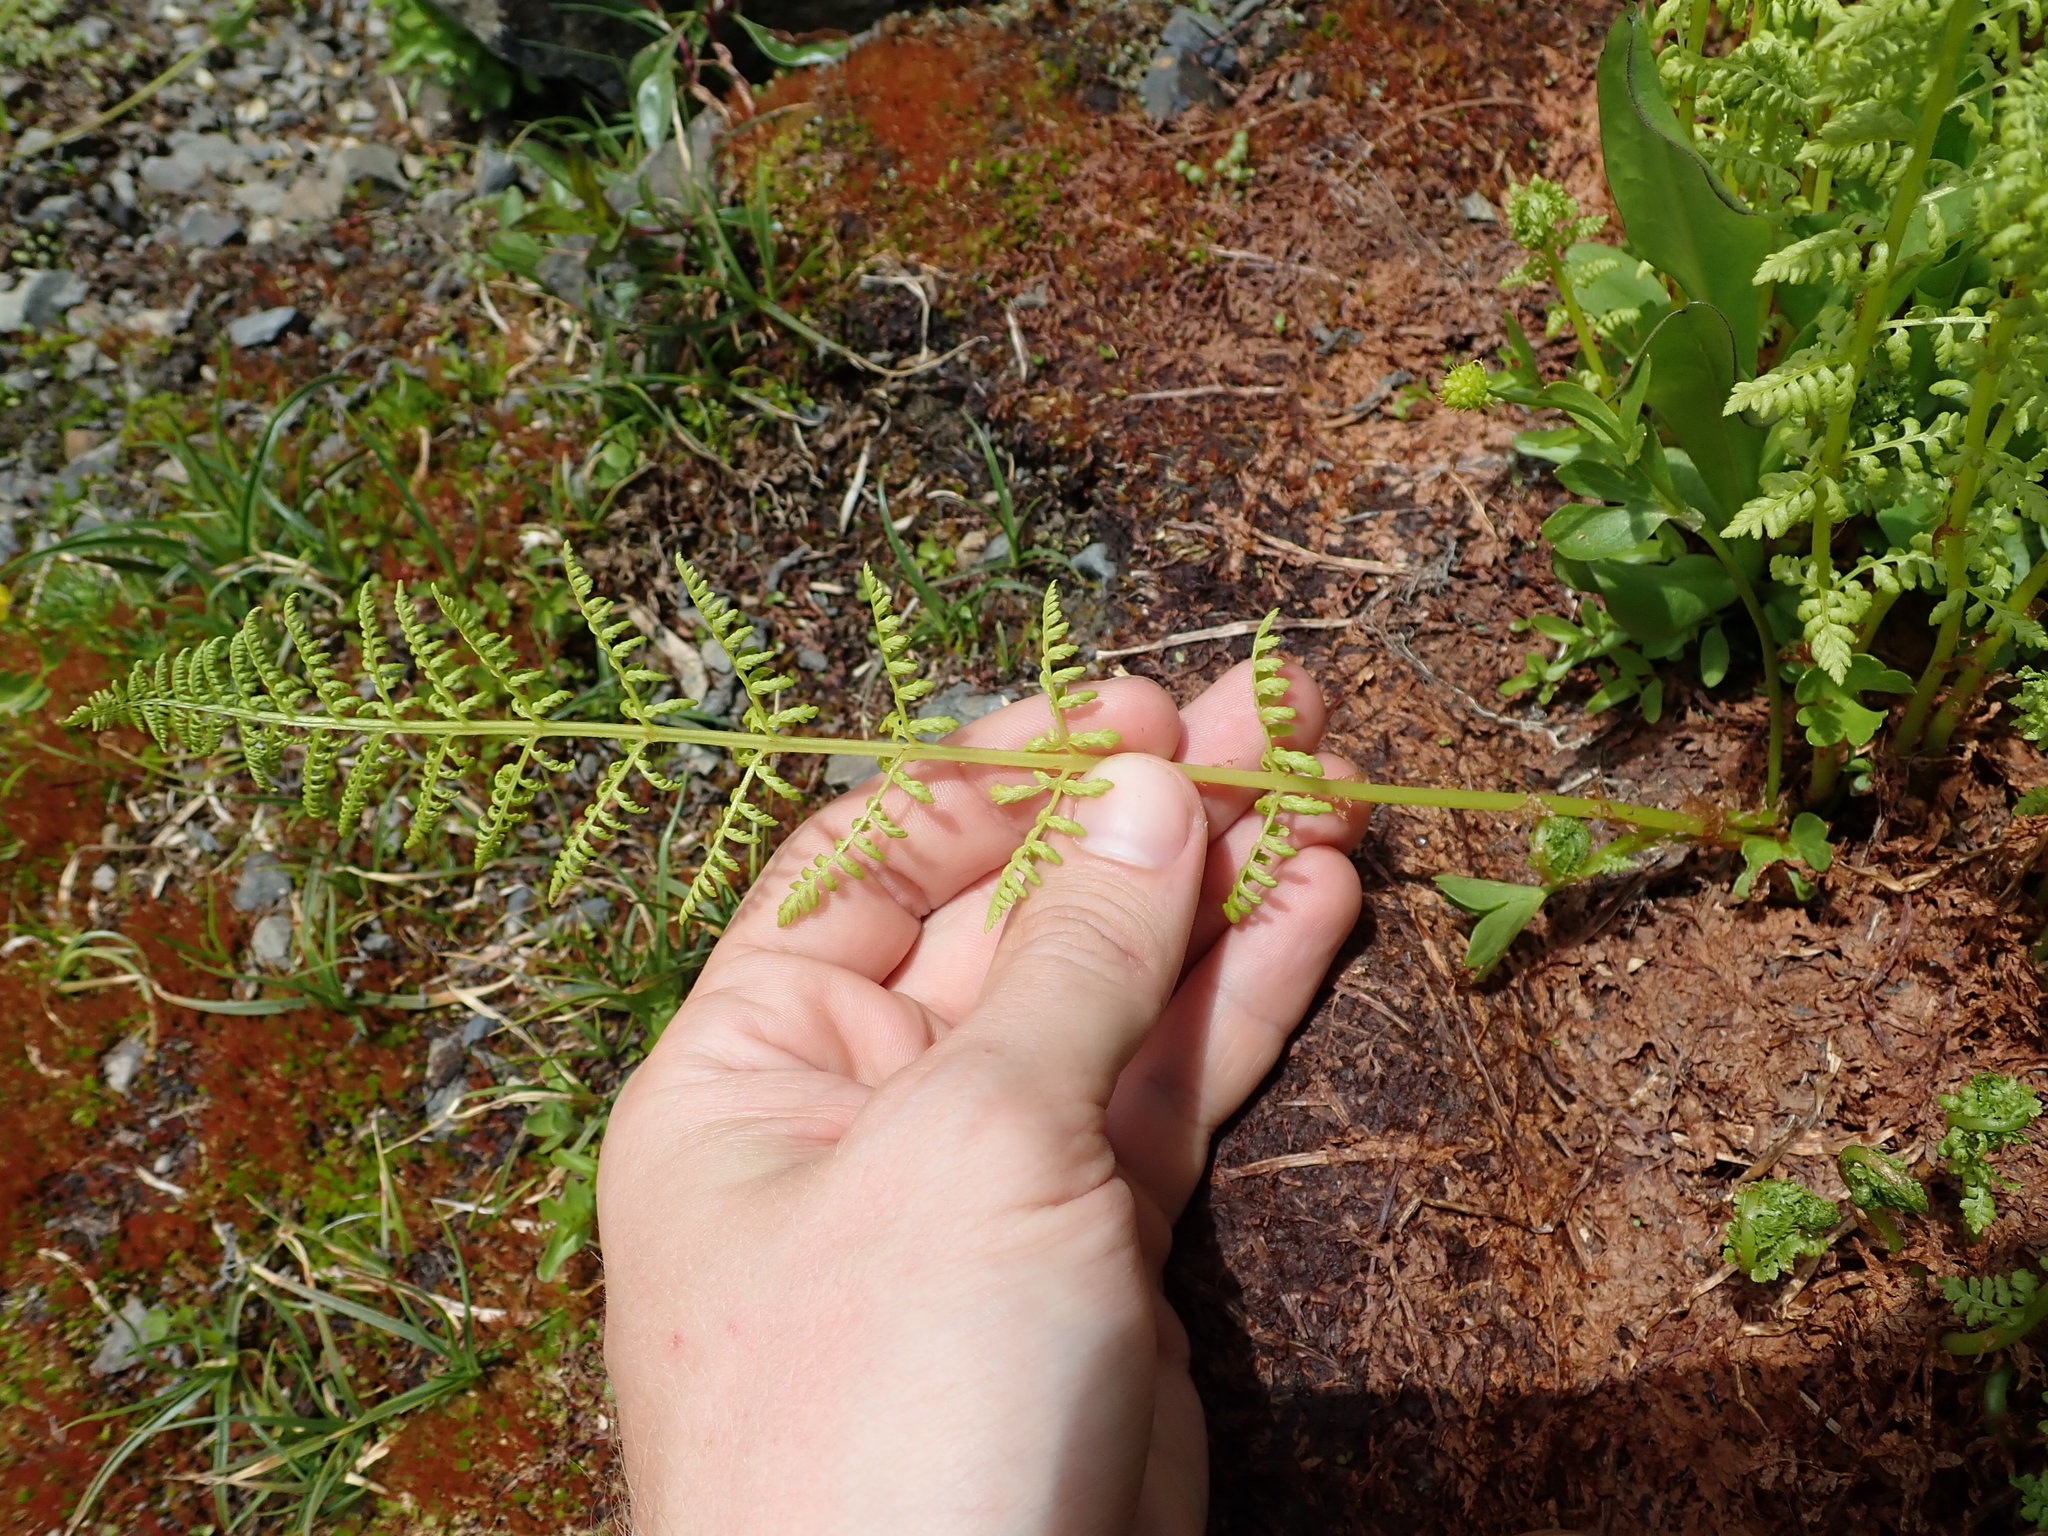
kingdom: Plantae
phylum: Tracheophyta
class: Polypodiopsida
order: Polypodiales
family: Athyriaceae
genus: Athyrium
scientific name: Athyrium americanum
